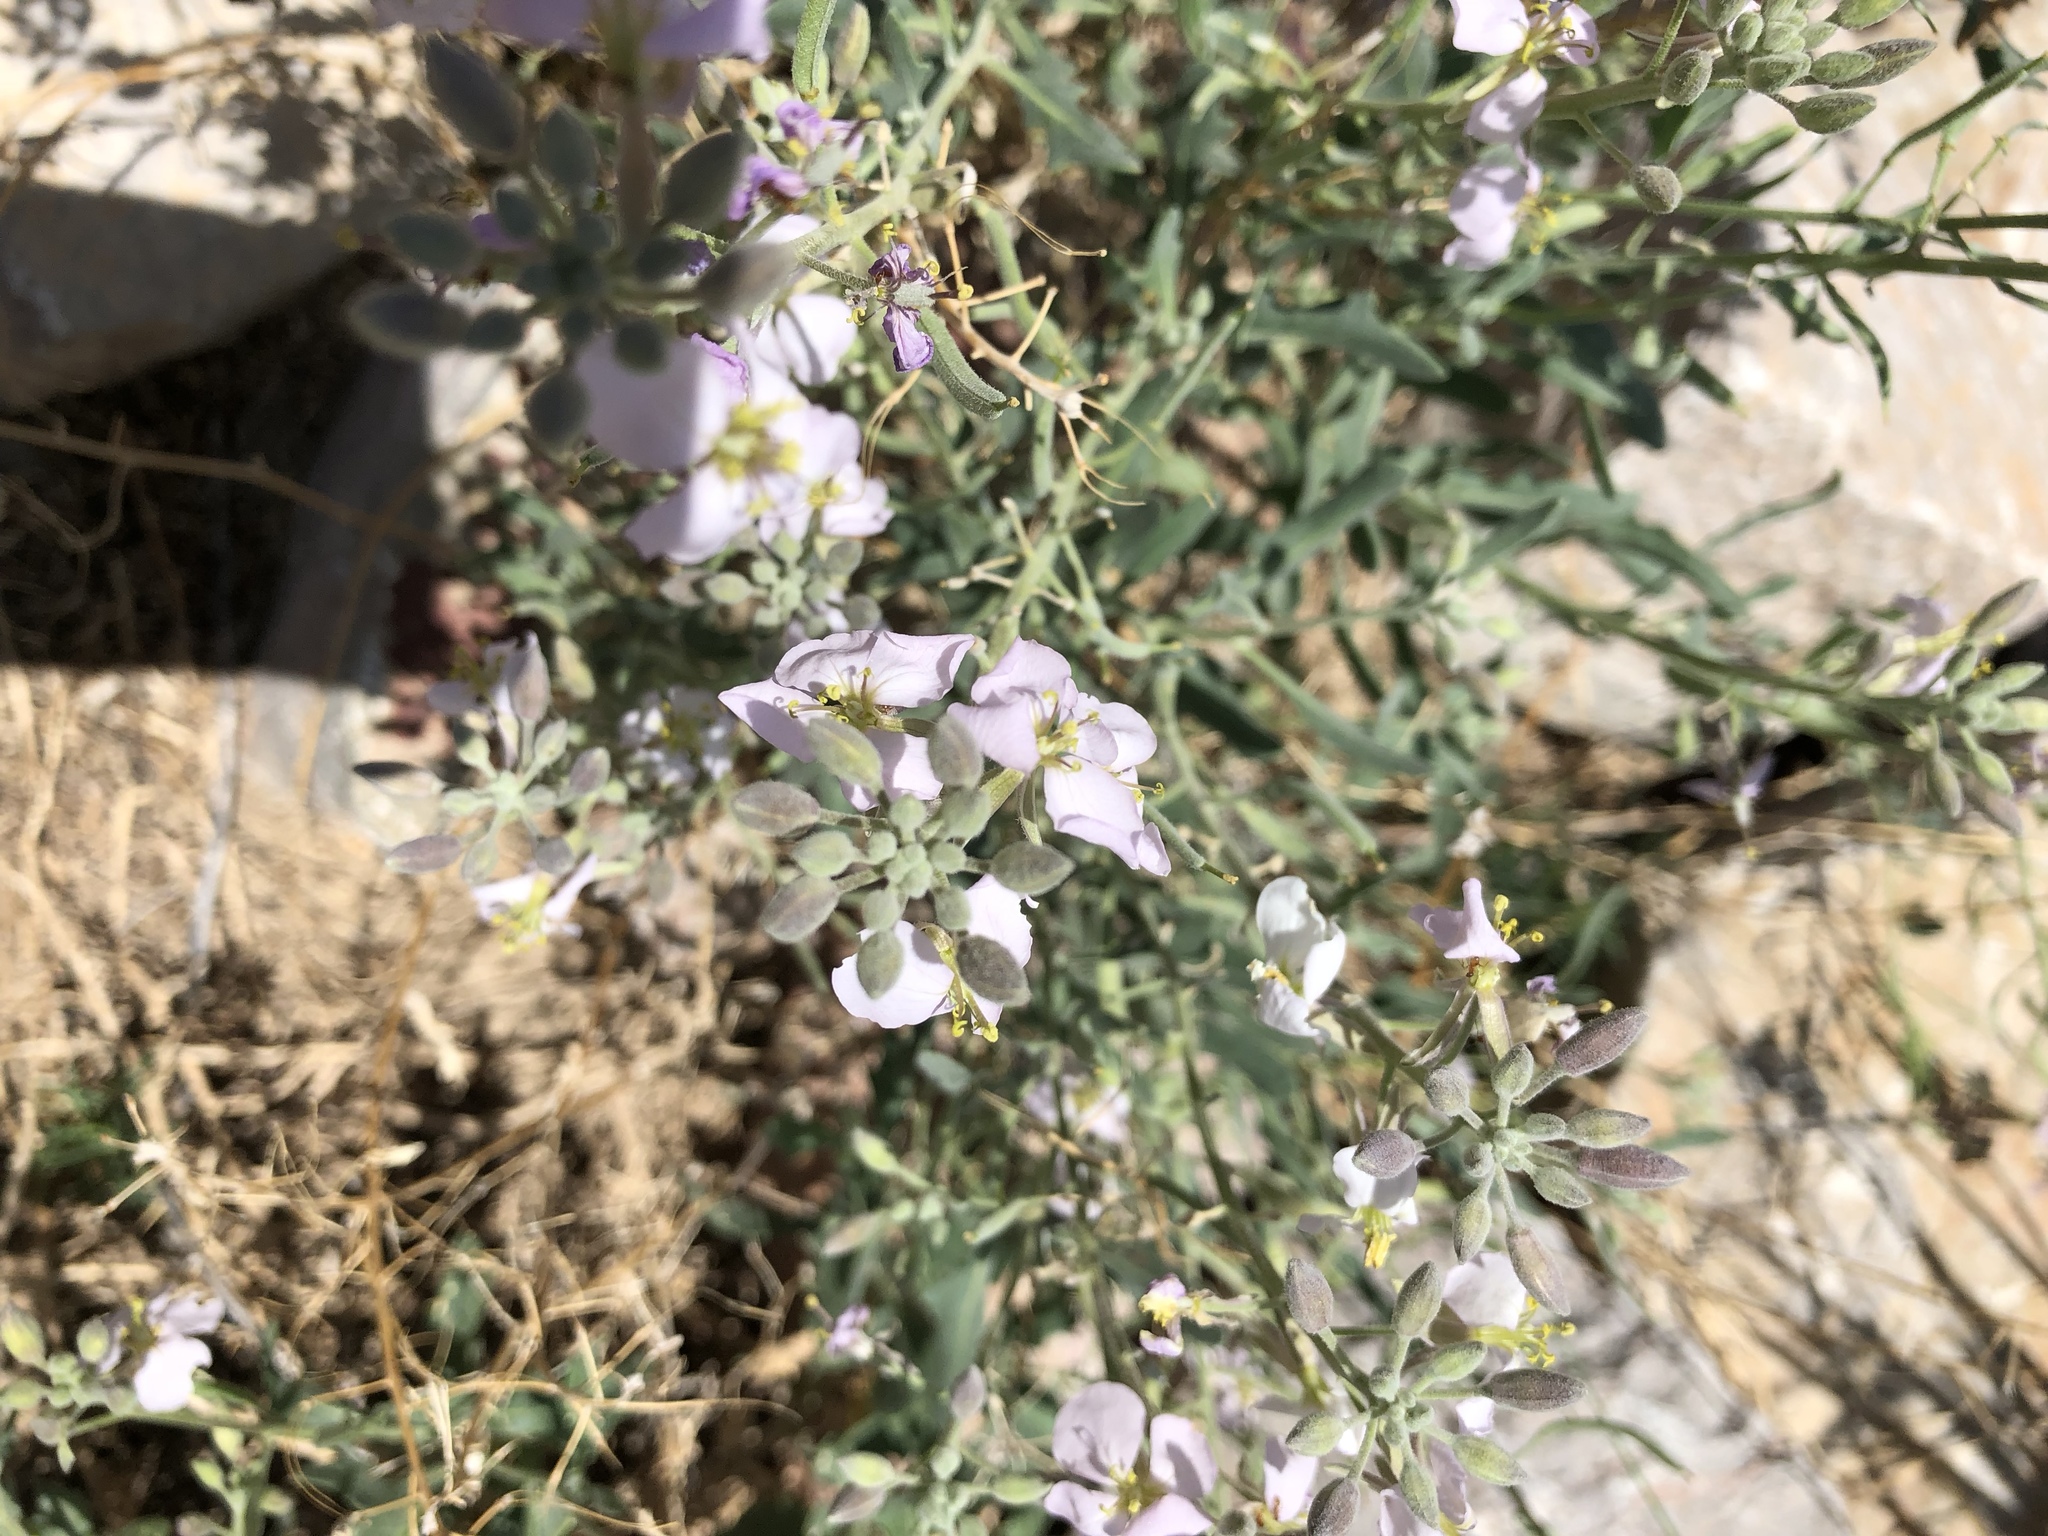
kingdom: Plantae
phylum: Tracheophyta
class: Magnoliopsida
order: Brassicales
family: Brassicaceae
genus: Nerisyrenia
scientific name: Nerisyrenia camporum
